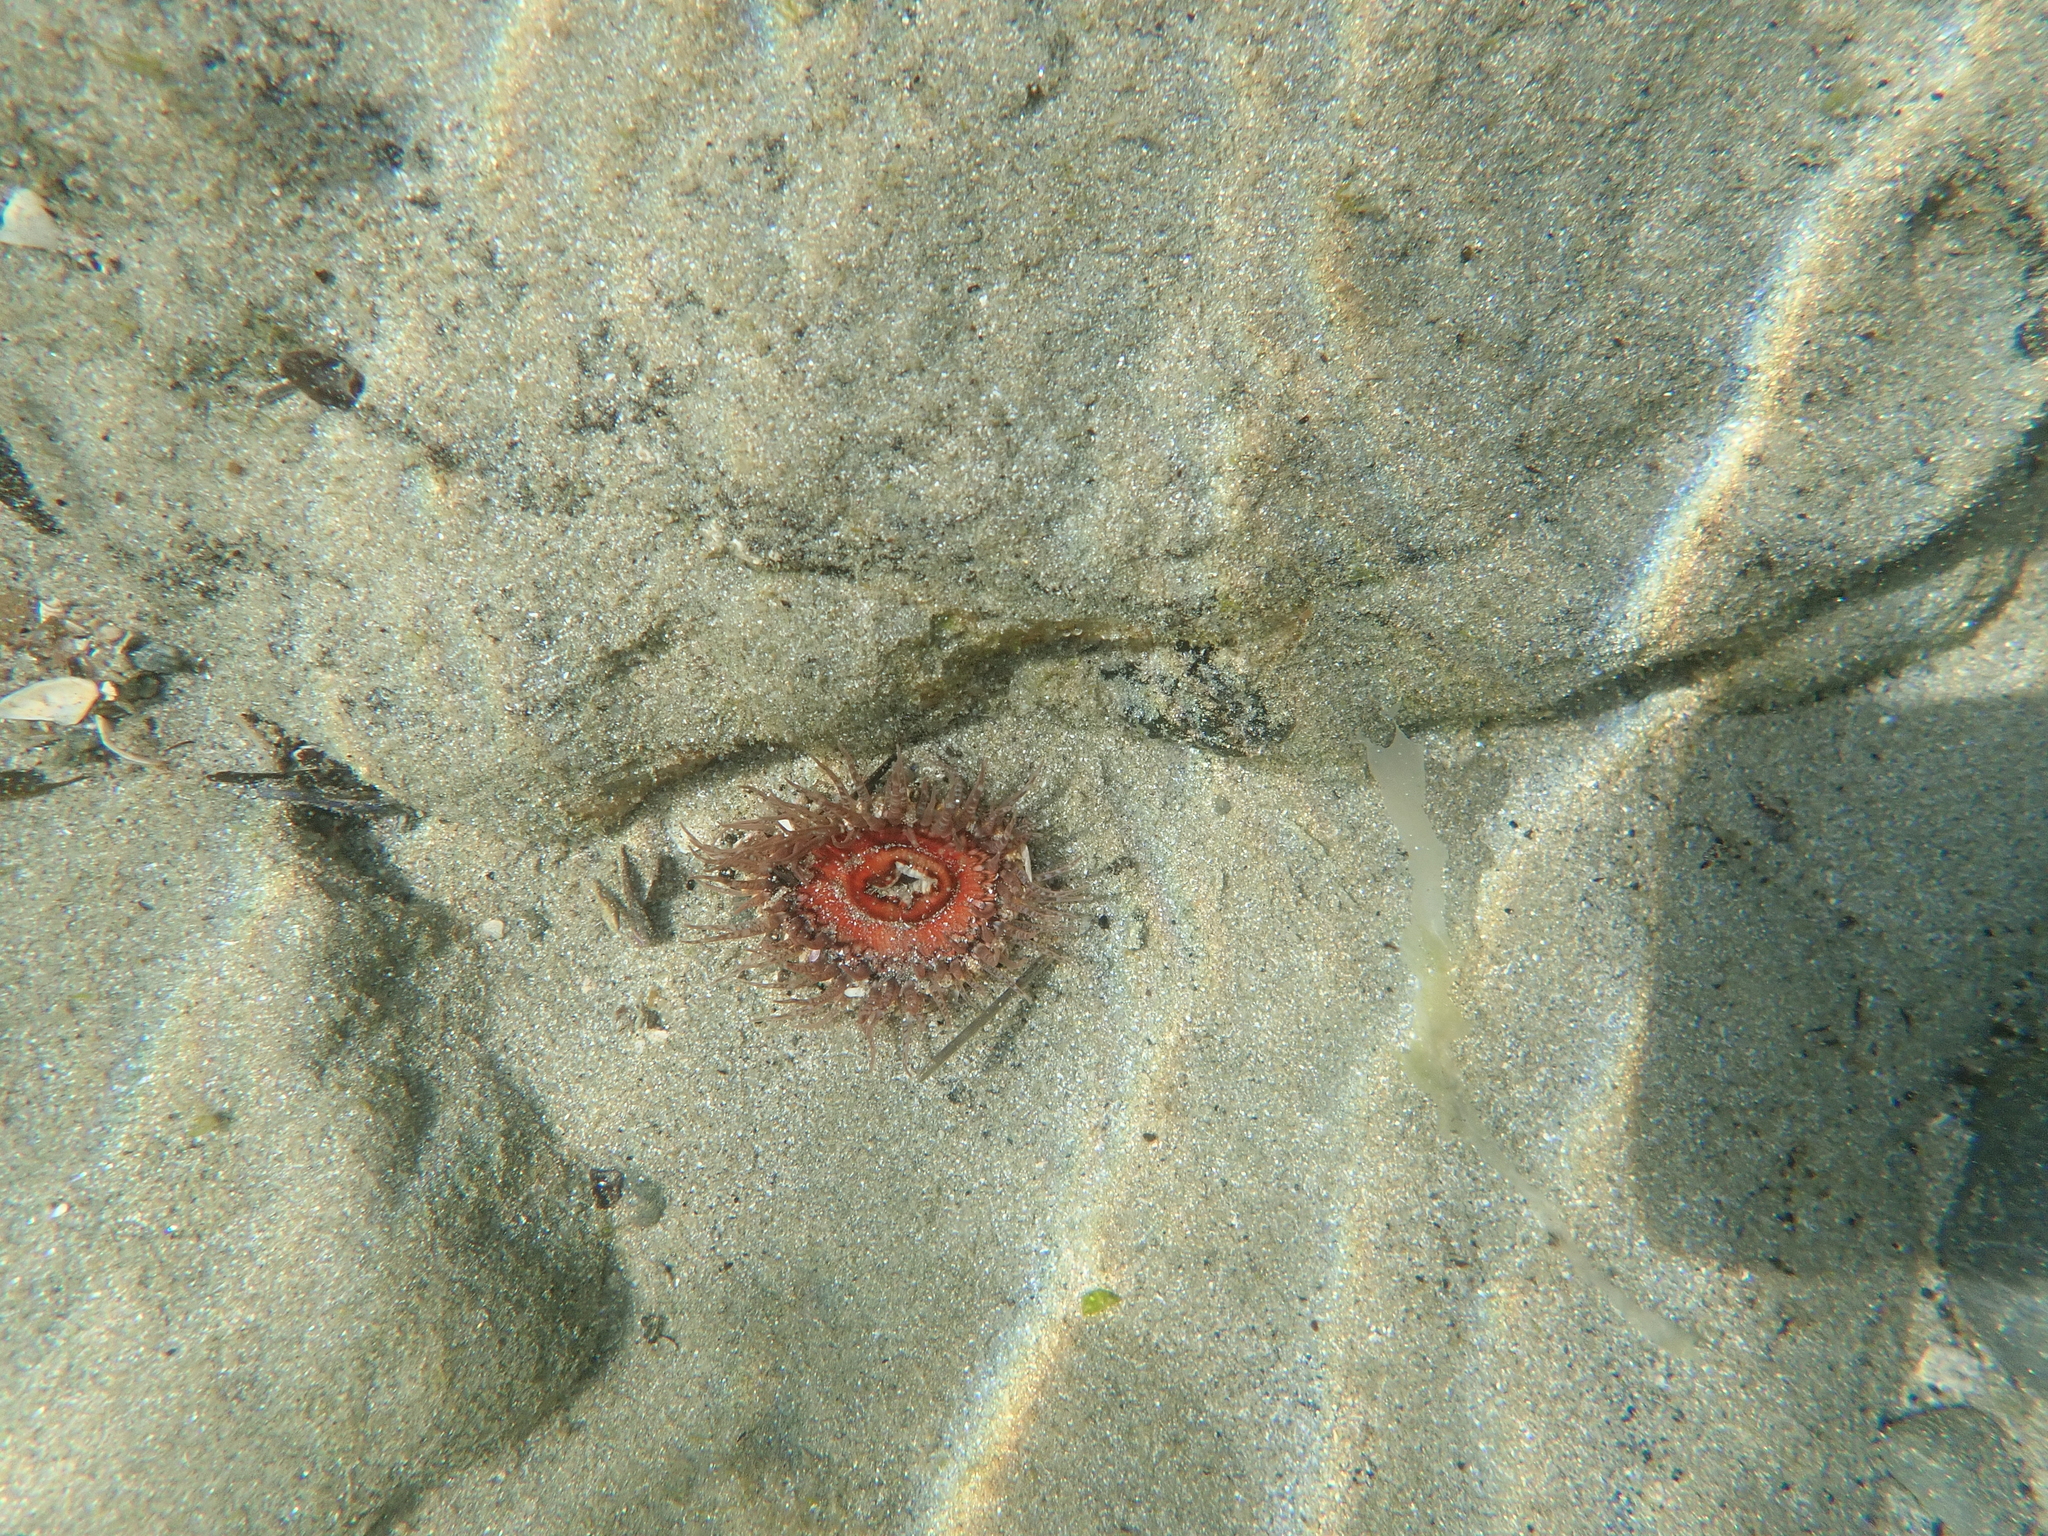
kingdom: Animalia
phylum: Cnidaria
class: Anthozoa
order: Actiniaria
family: Actiniidae
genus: Oulactis
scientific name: Oulactis muscosa
